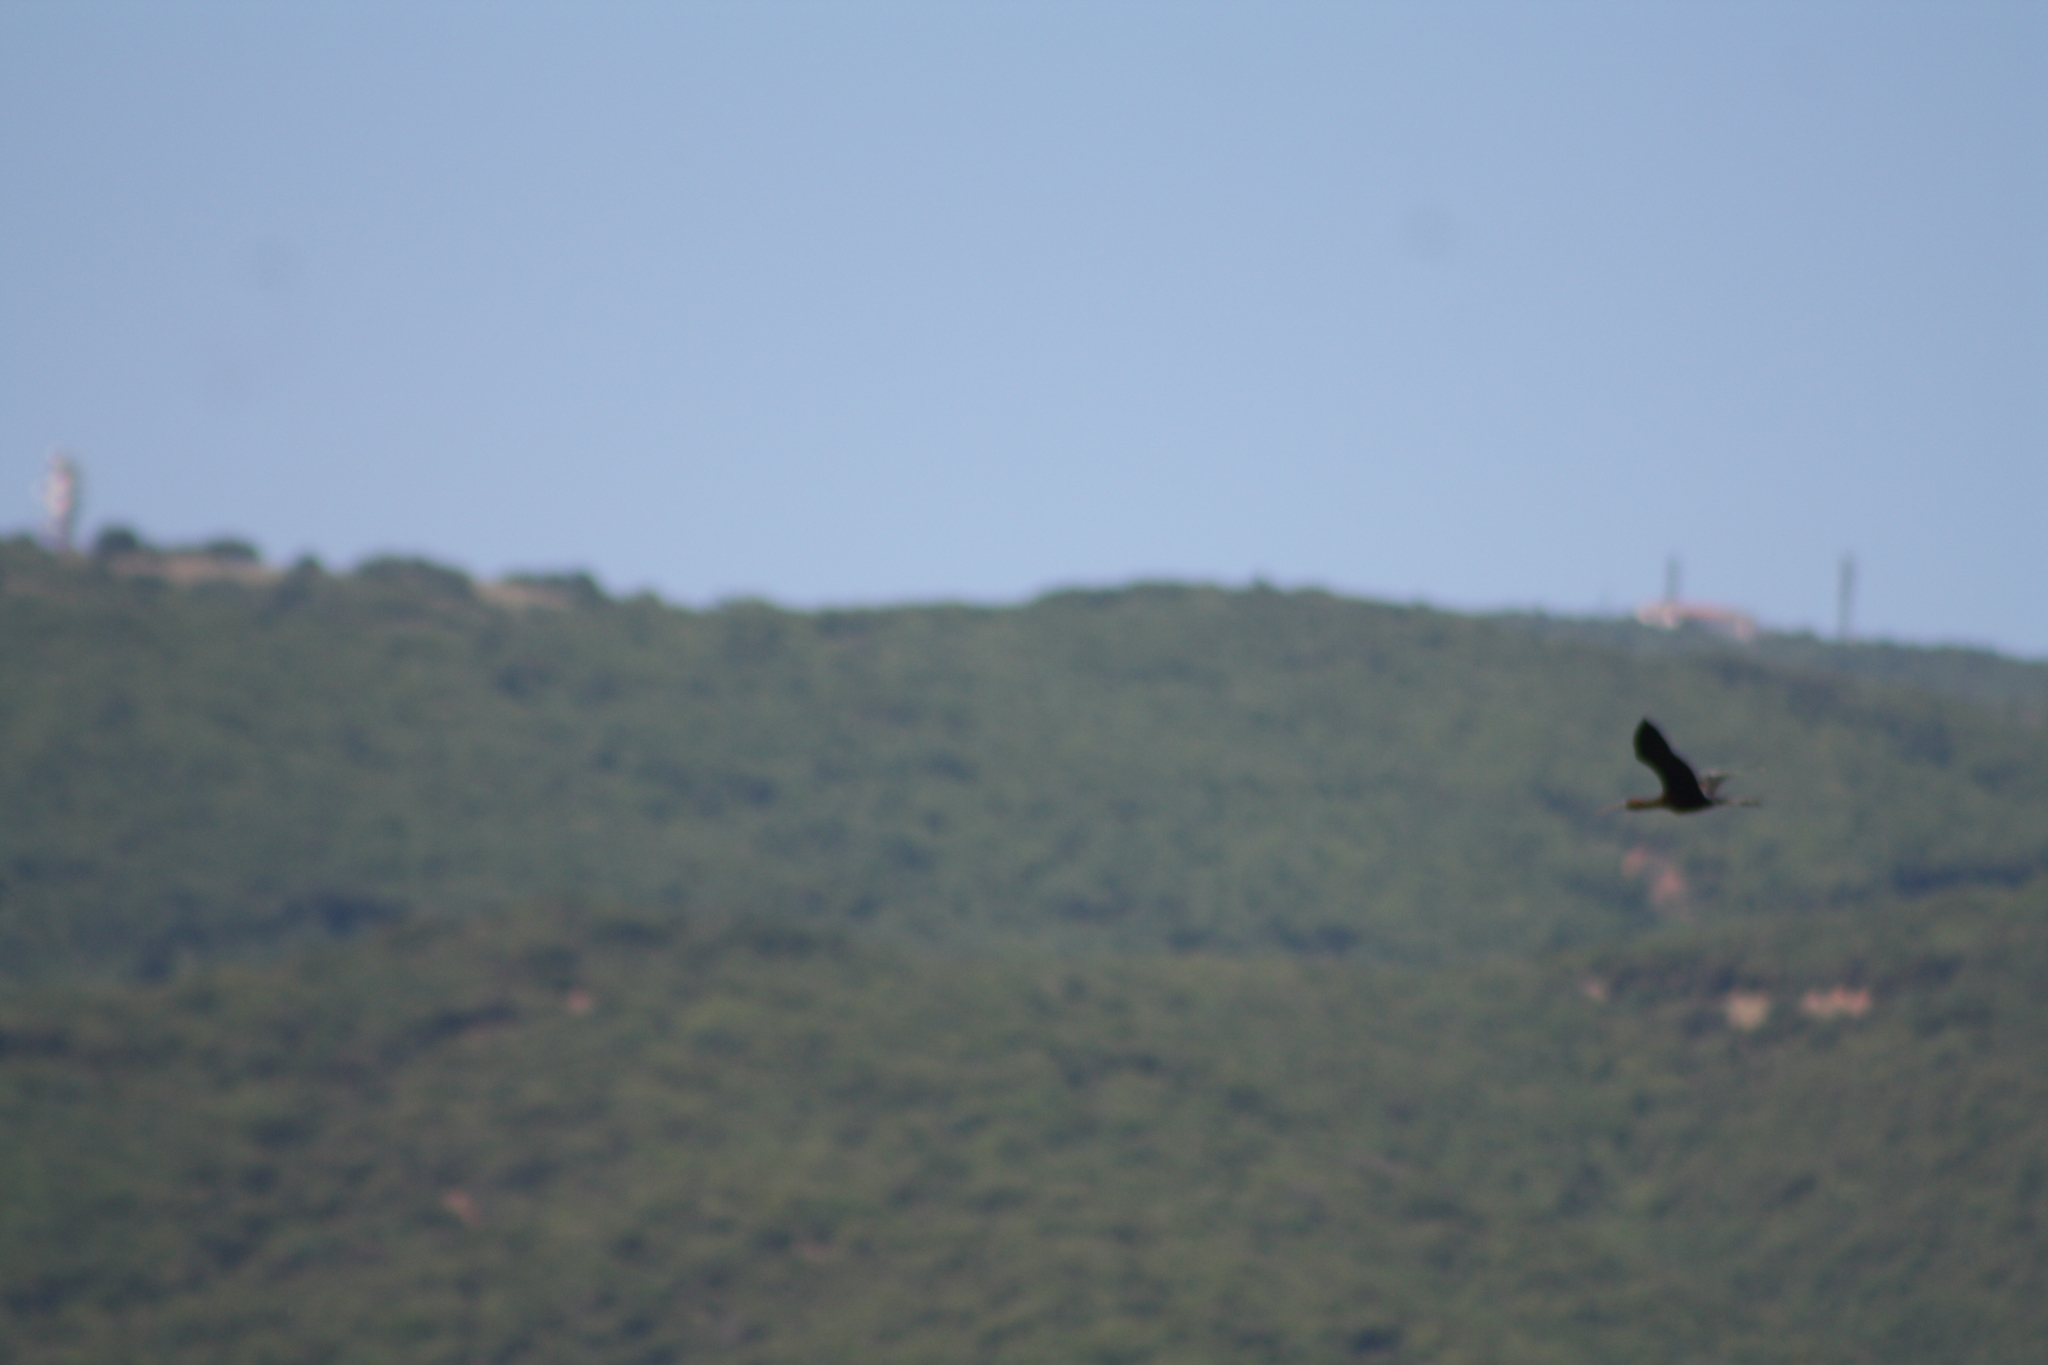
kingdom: Animalia
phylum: Chordata
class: Aves
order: Pelecaniformes
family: Threskiornithidae
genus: Plegadis
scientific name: Plegadis falcinellus
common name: Glossy ibis
